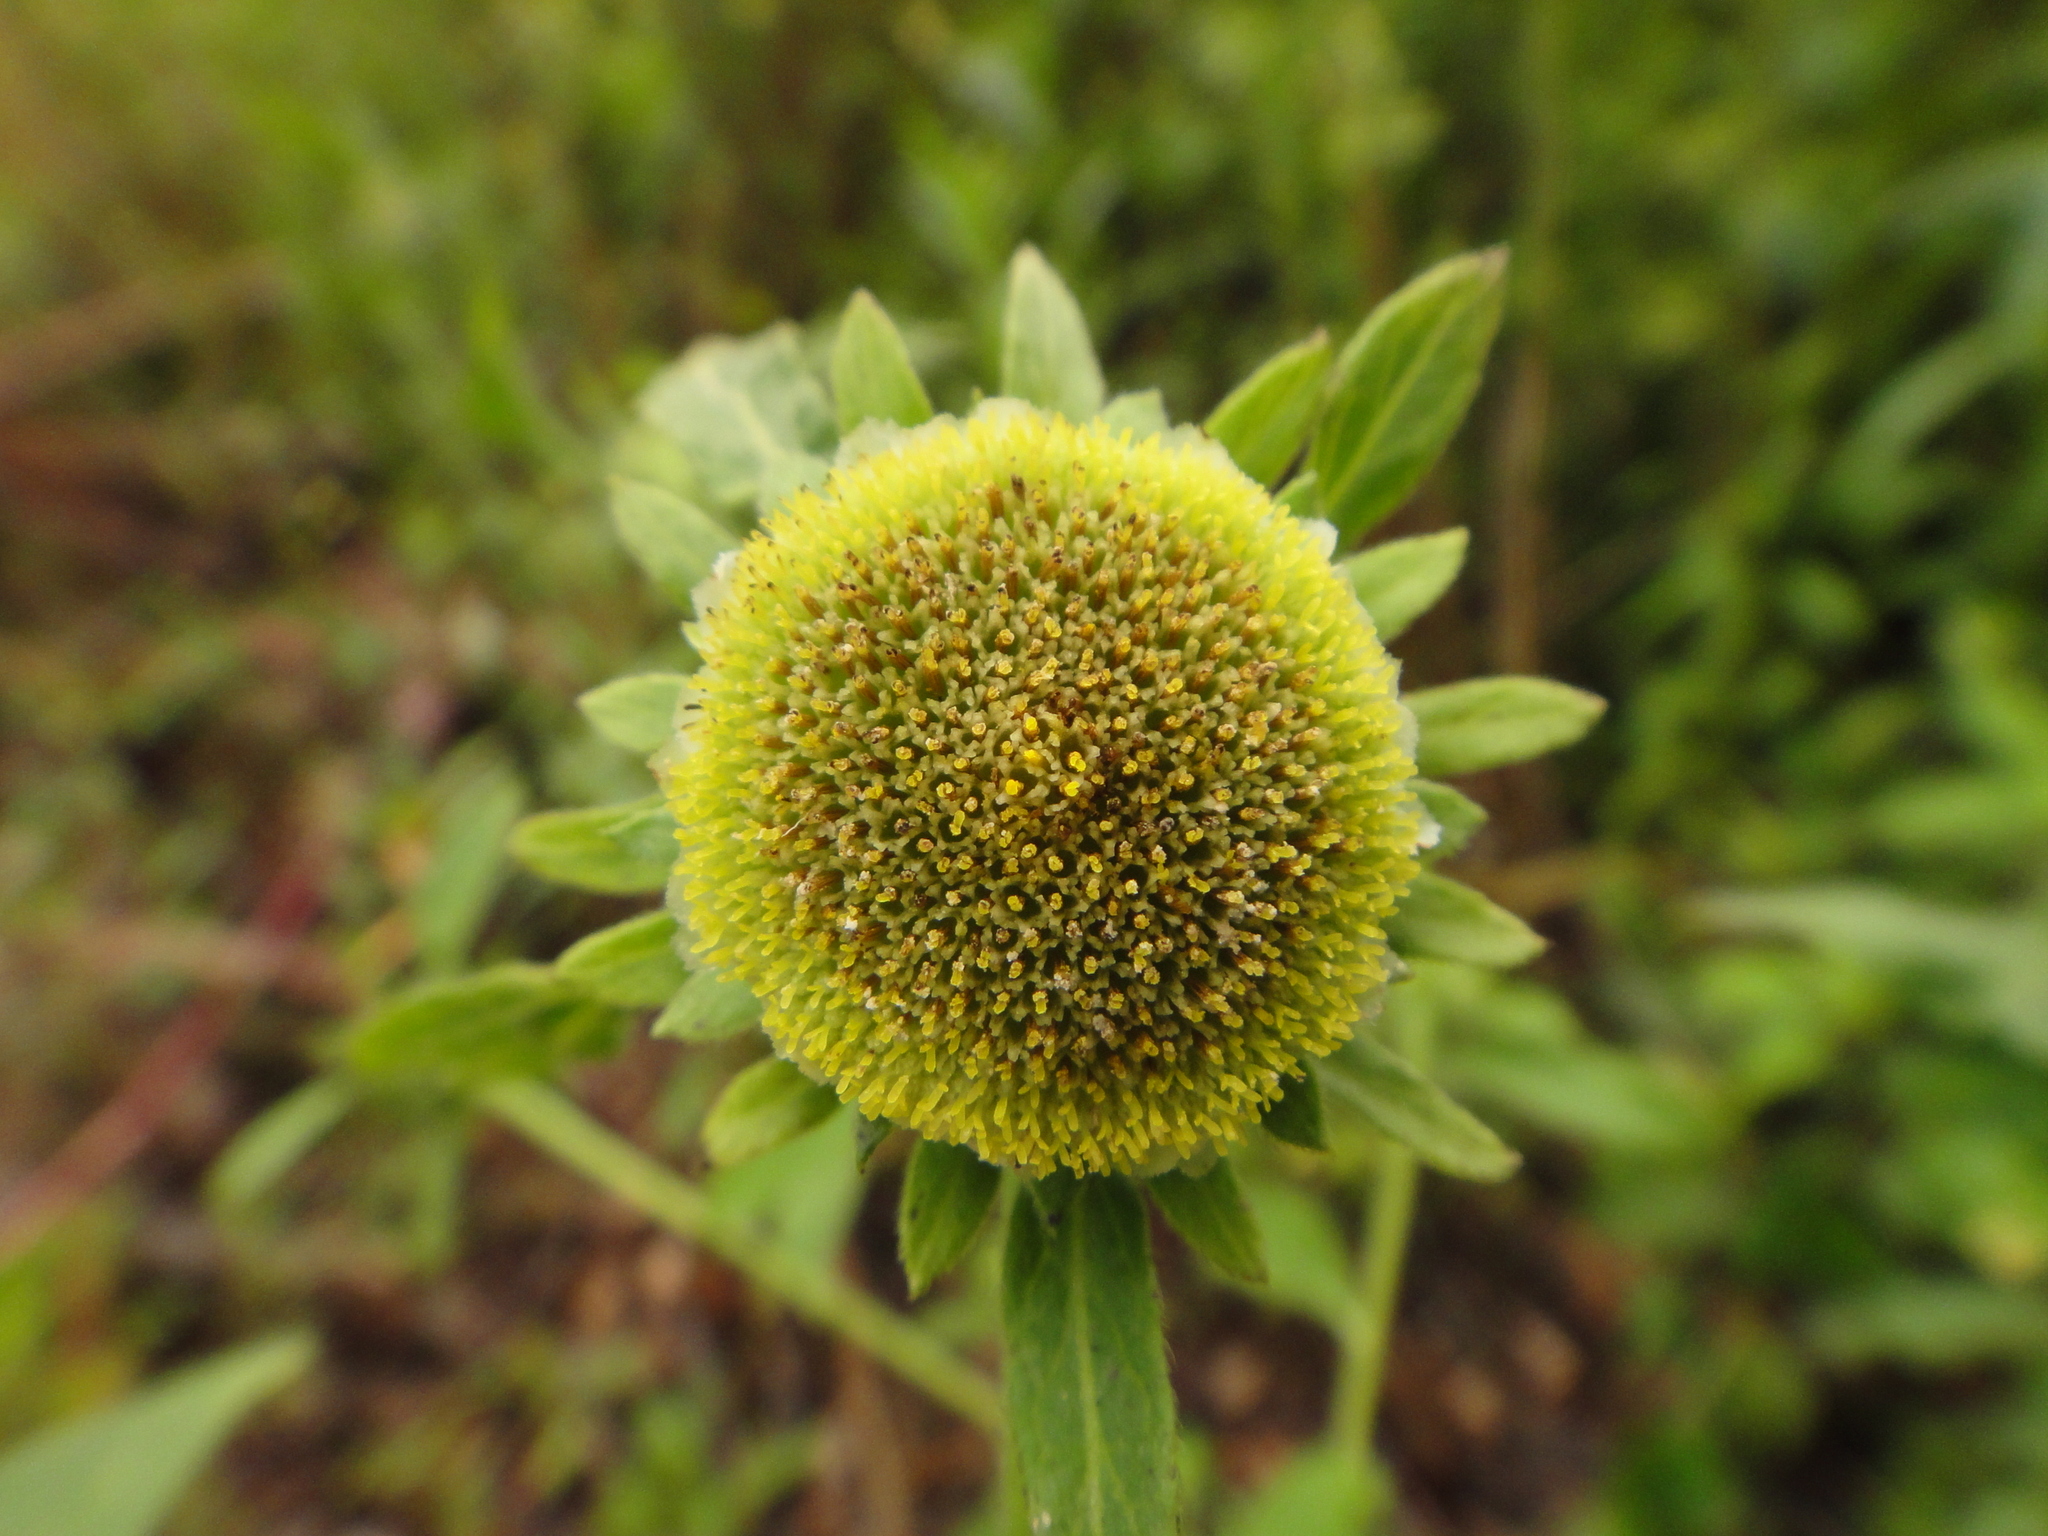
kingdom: Plantae
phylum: Tracheophyta
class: Magnoliopsida
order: Asterales
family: Asteraceae
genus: Carpesium
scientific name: Carpesium cernuum
